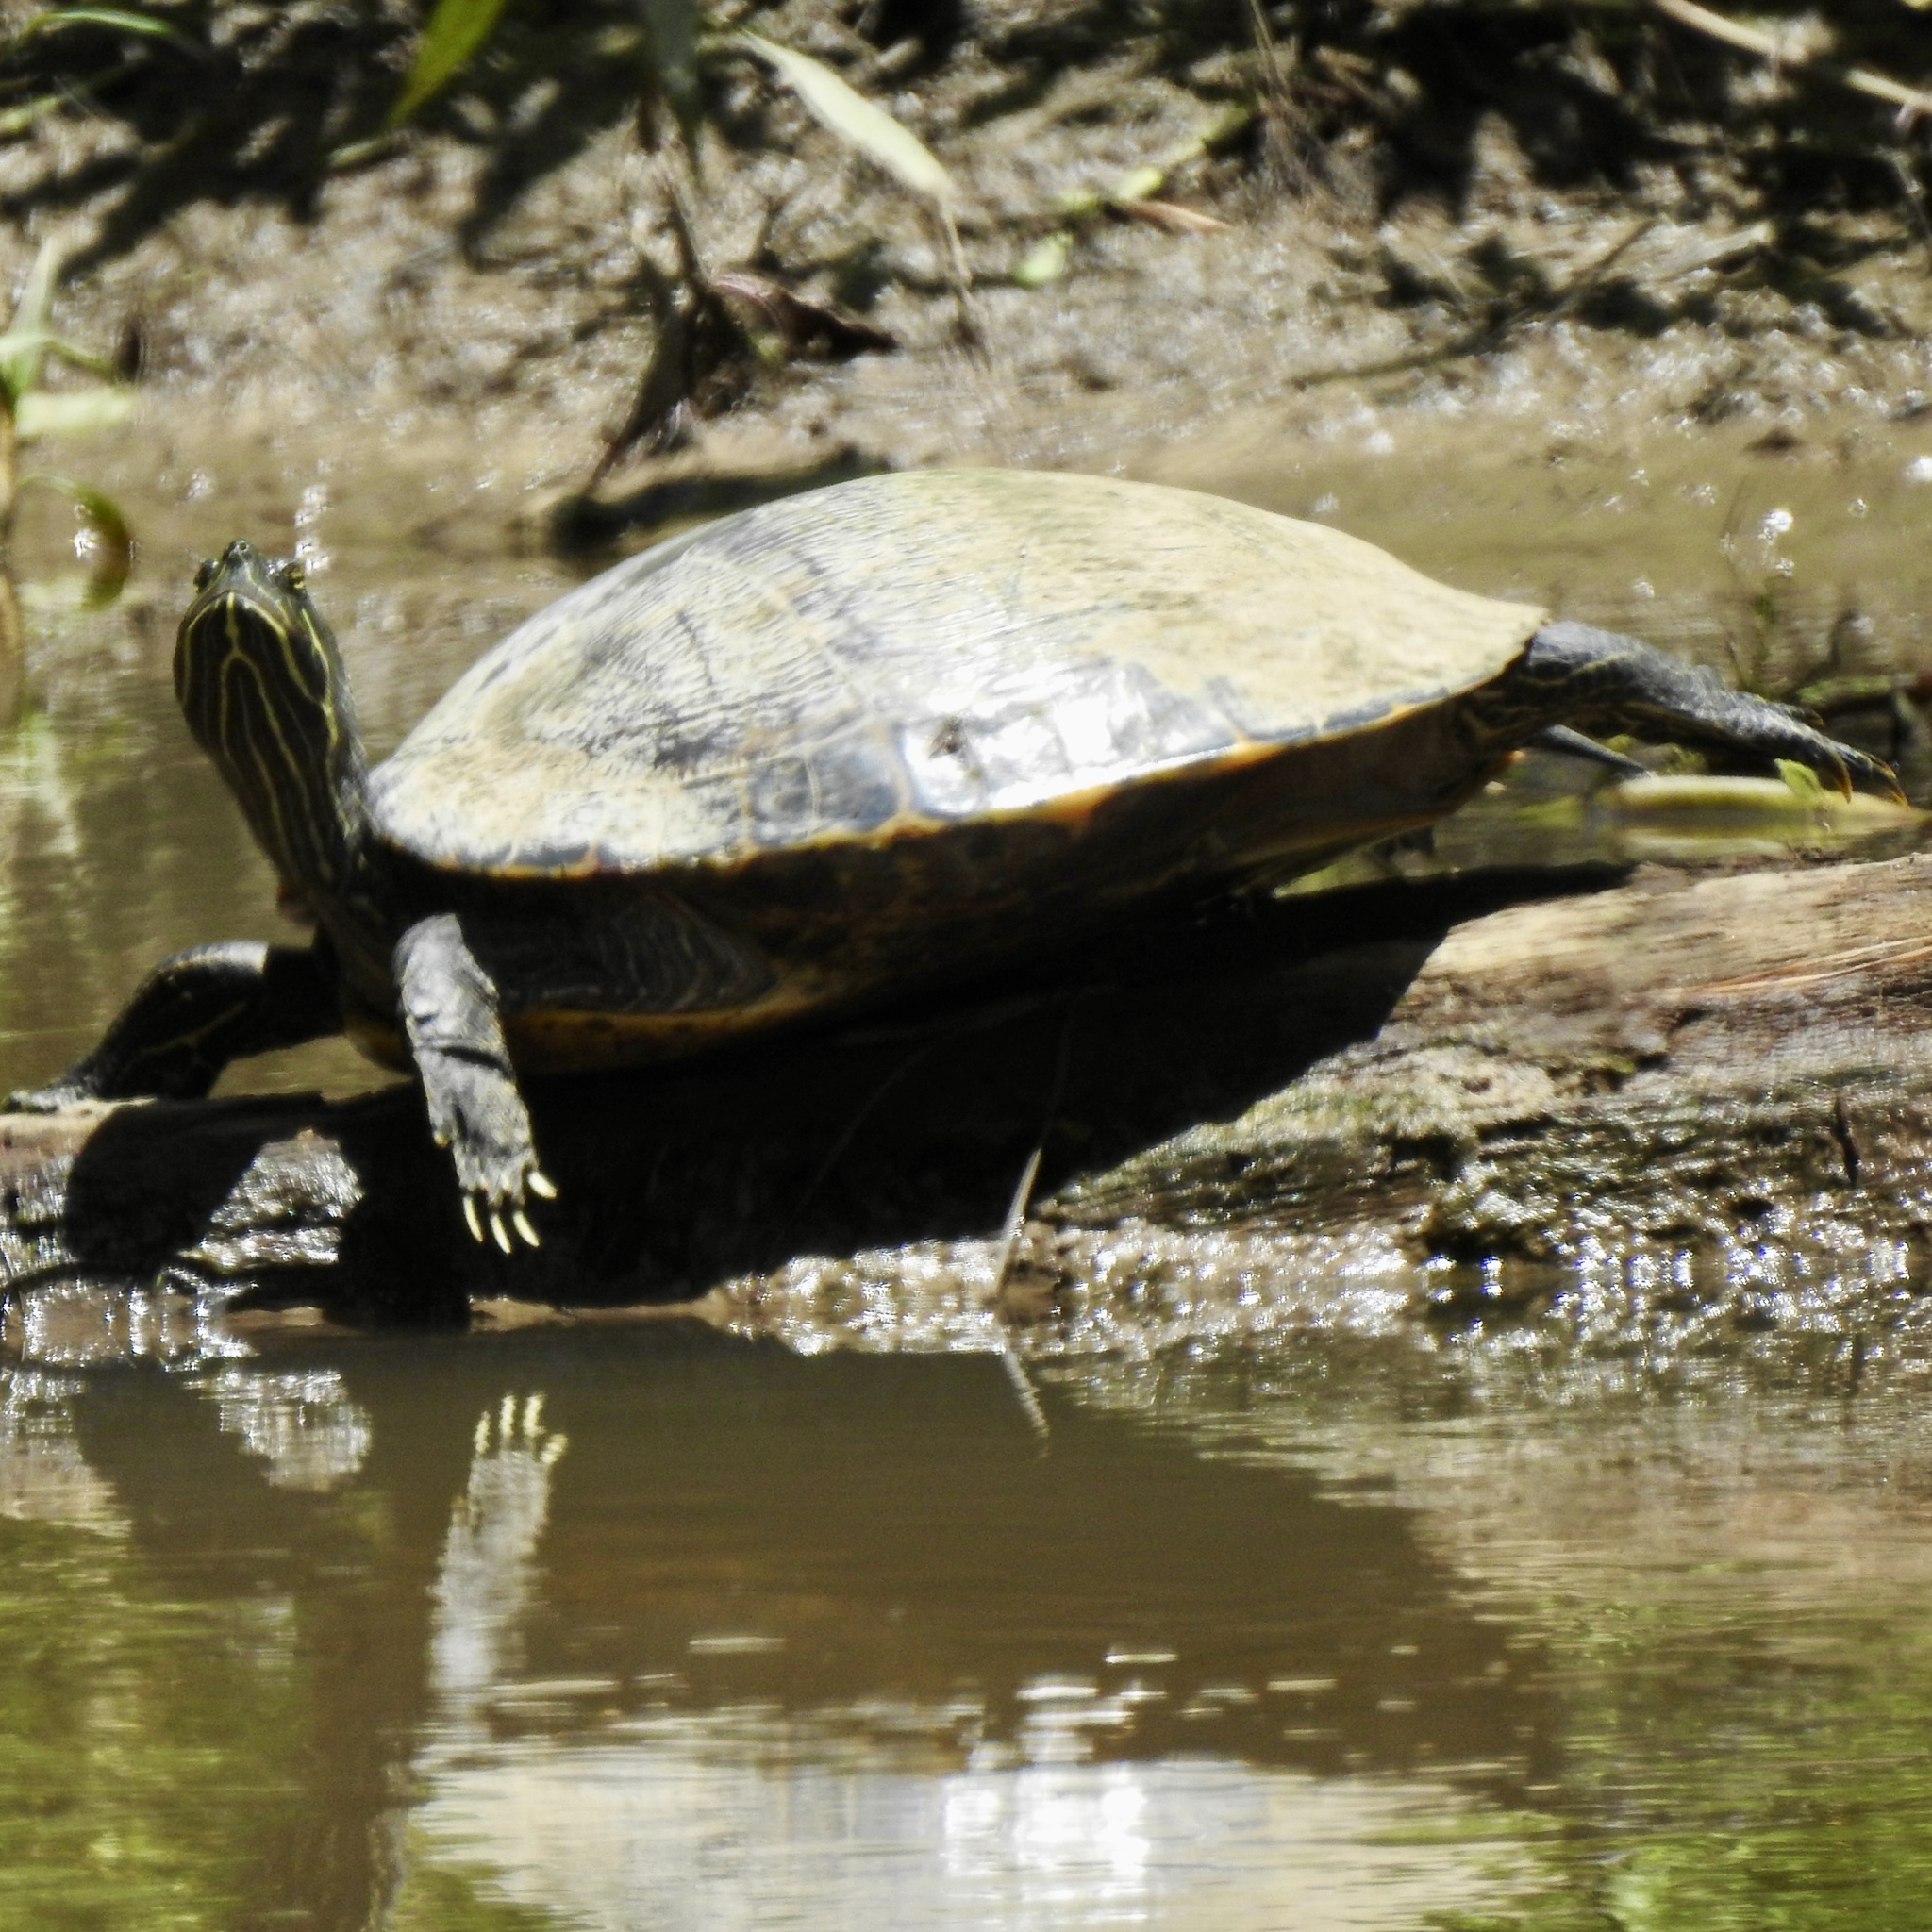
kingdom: Animalia
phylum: Chordata
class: Testudines
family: Emydidae
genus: Pseudemys
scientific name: Pseudemys concinna
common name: Eastern river cooter
